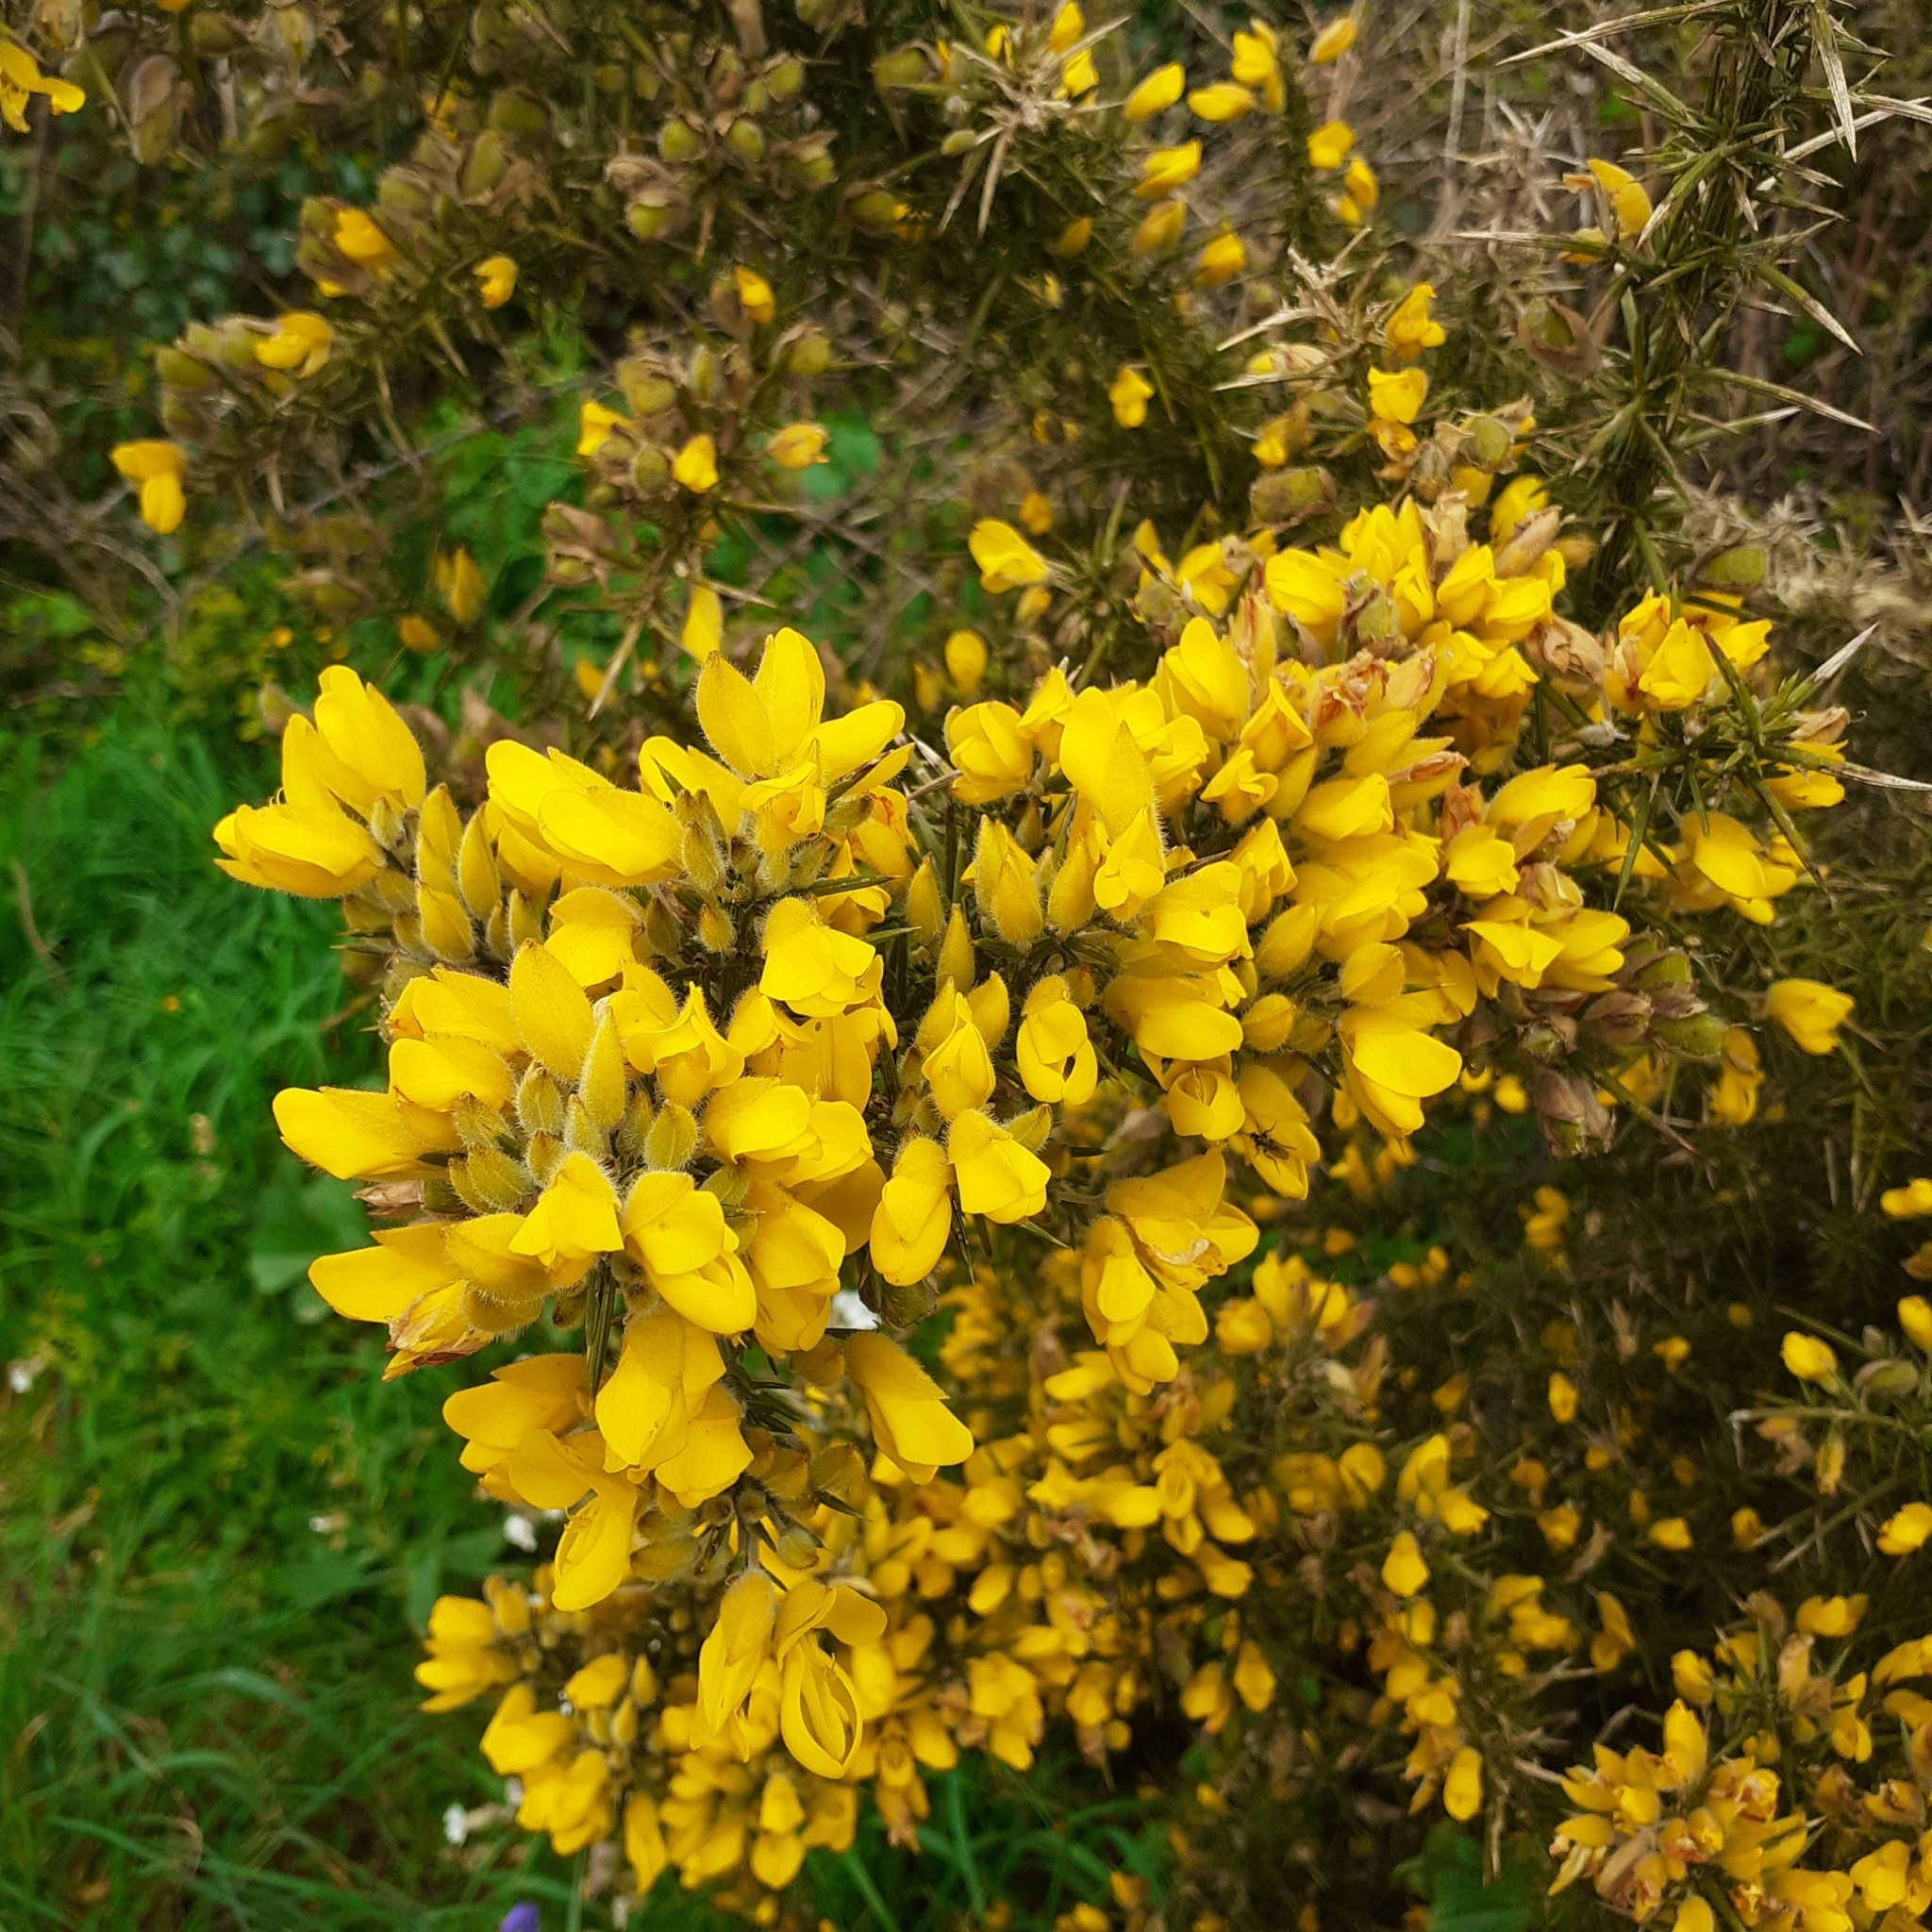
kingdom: Plantae
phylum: Tracheophyta
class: Magnoliopsida
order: Fabales
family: Fabaceae
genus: Ulex
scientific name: Ulex europaeus
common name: Common gorse
